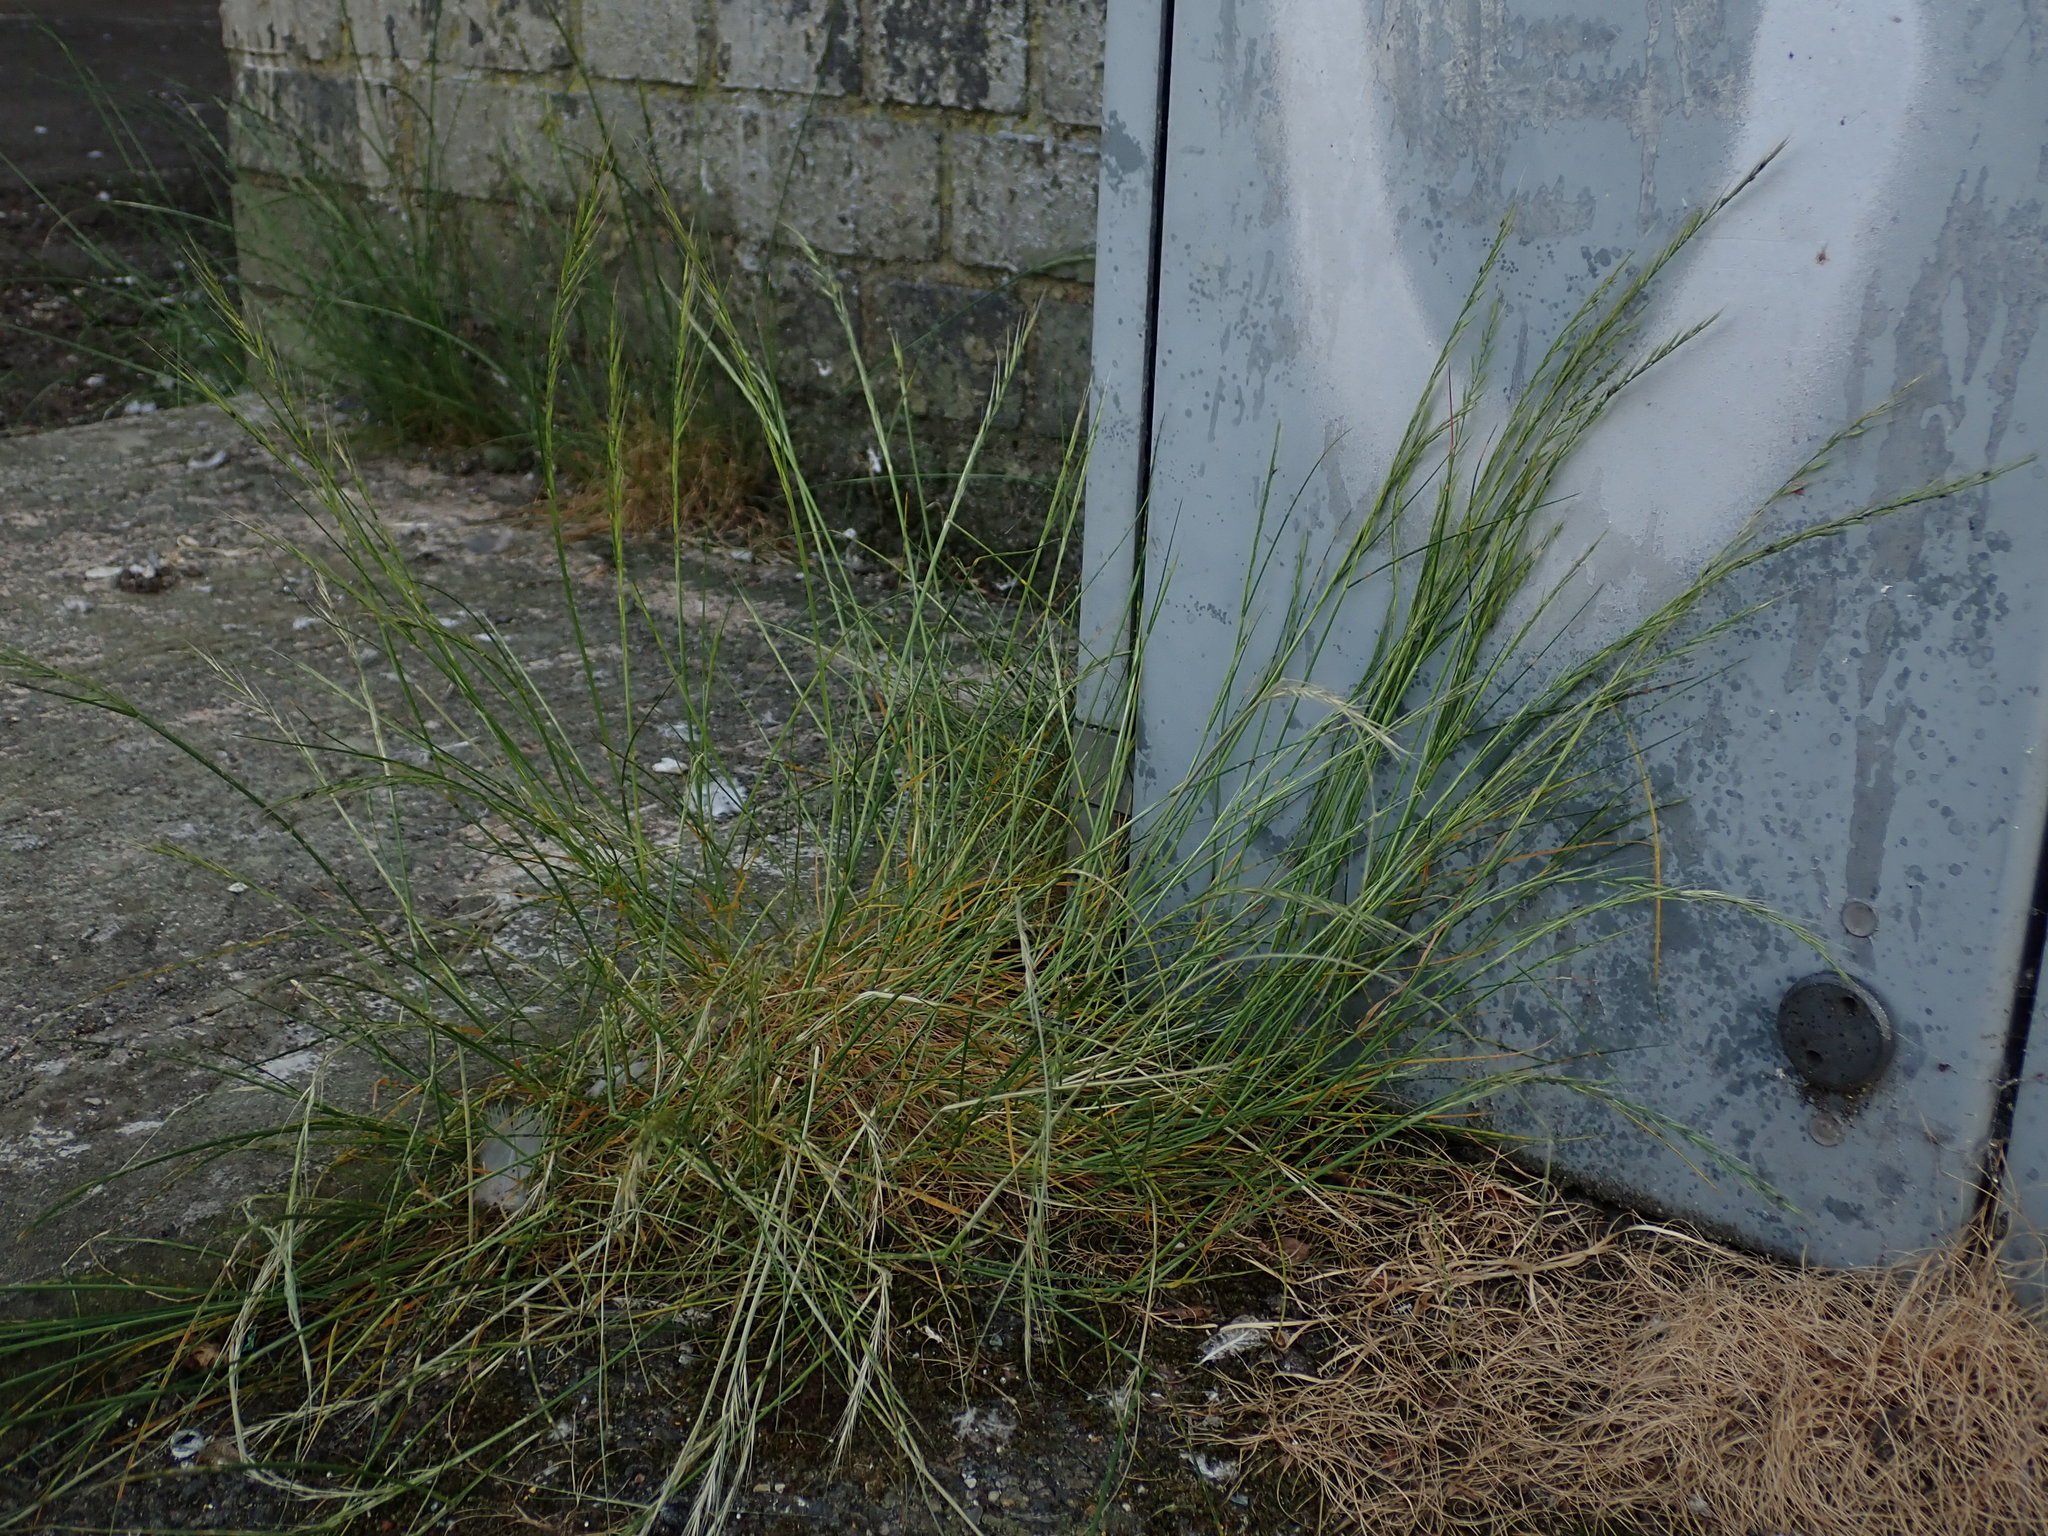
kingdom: Plantae
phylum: Tracheophyta
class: Liliopsida
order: Poales
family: Poaceae
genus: Festuca
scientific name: Festuca myuros
